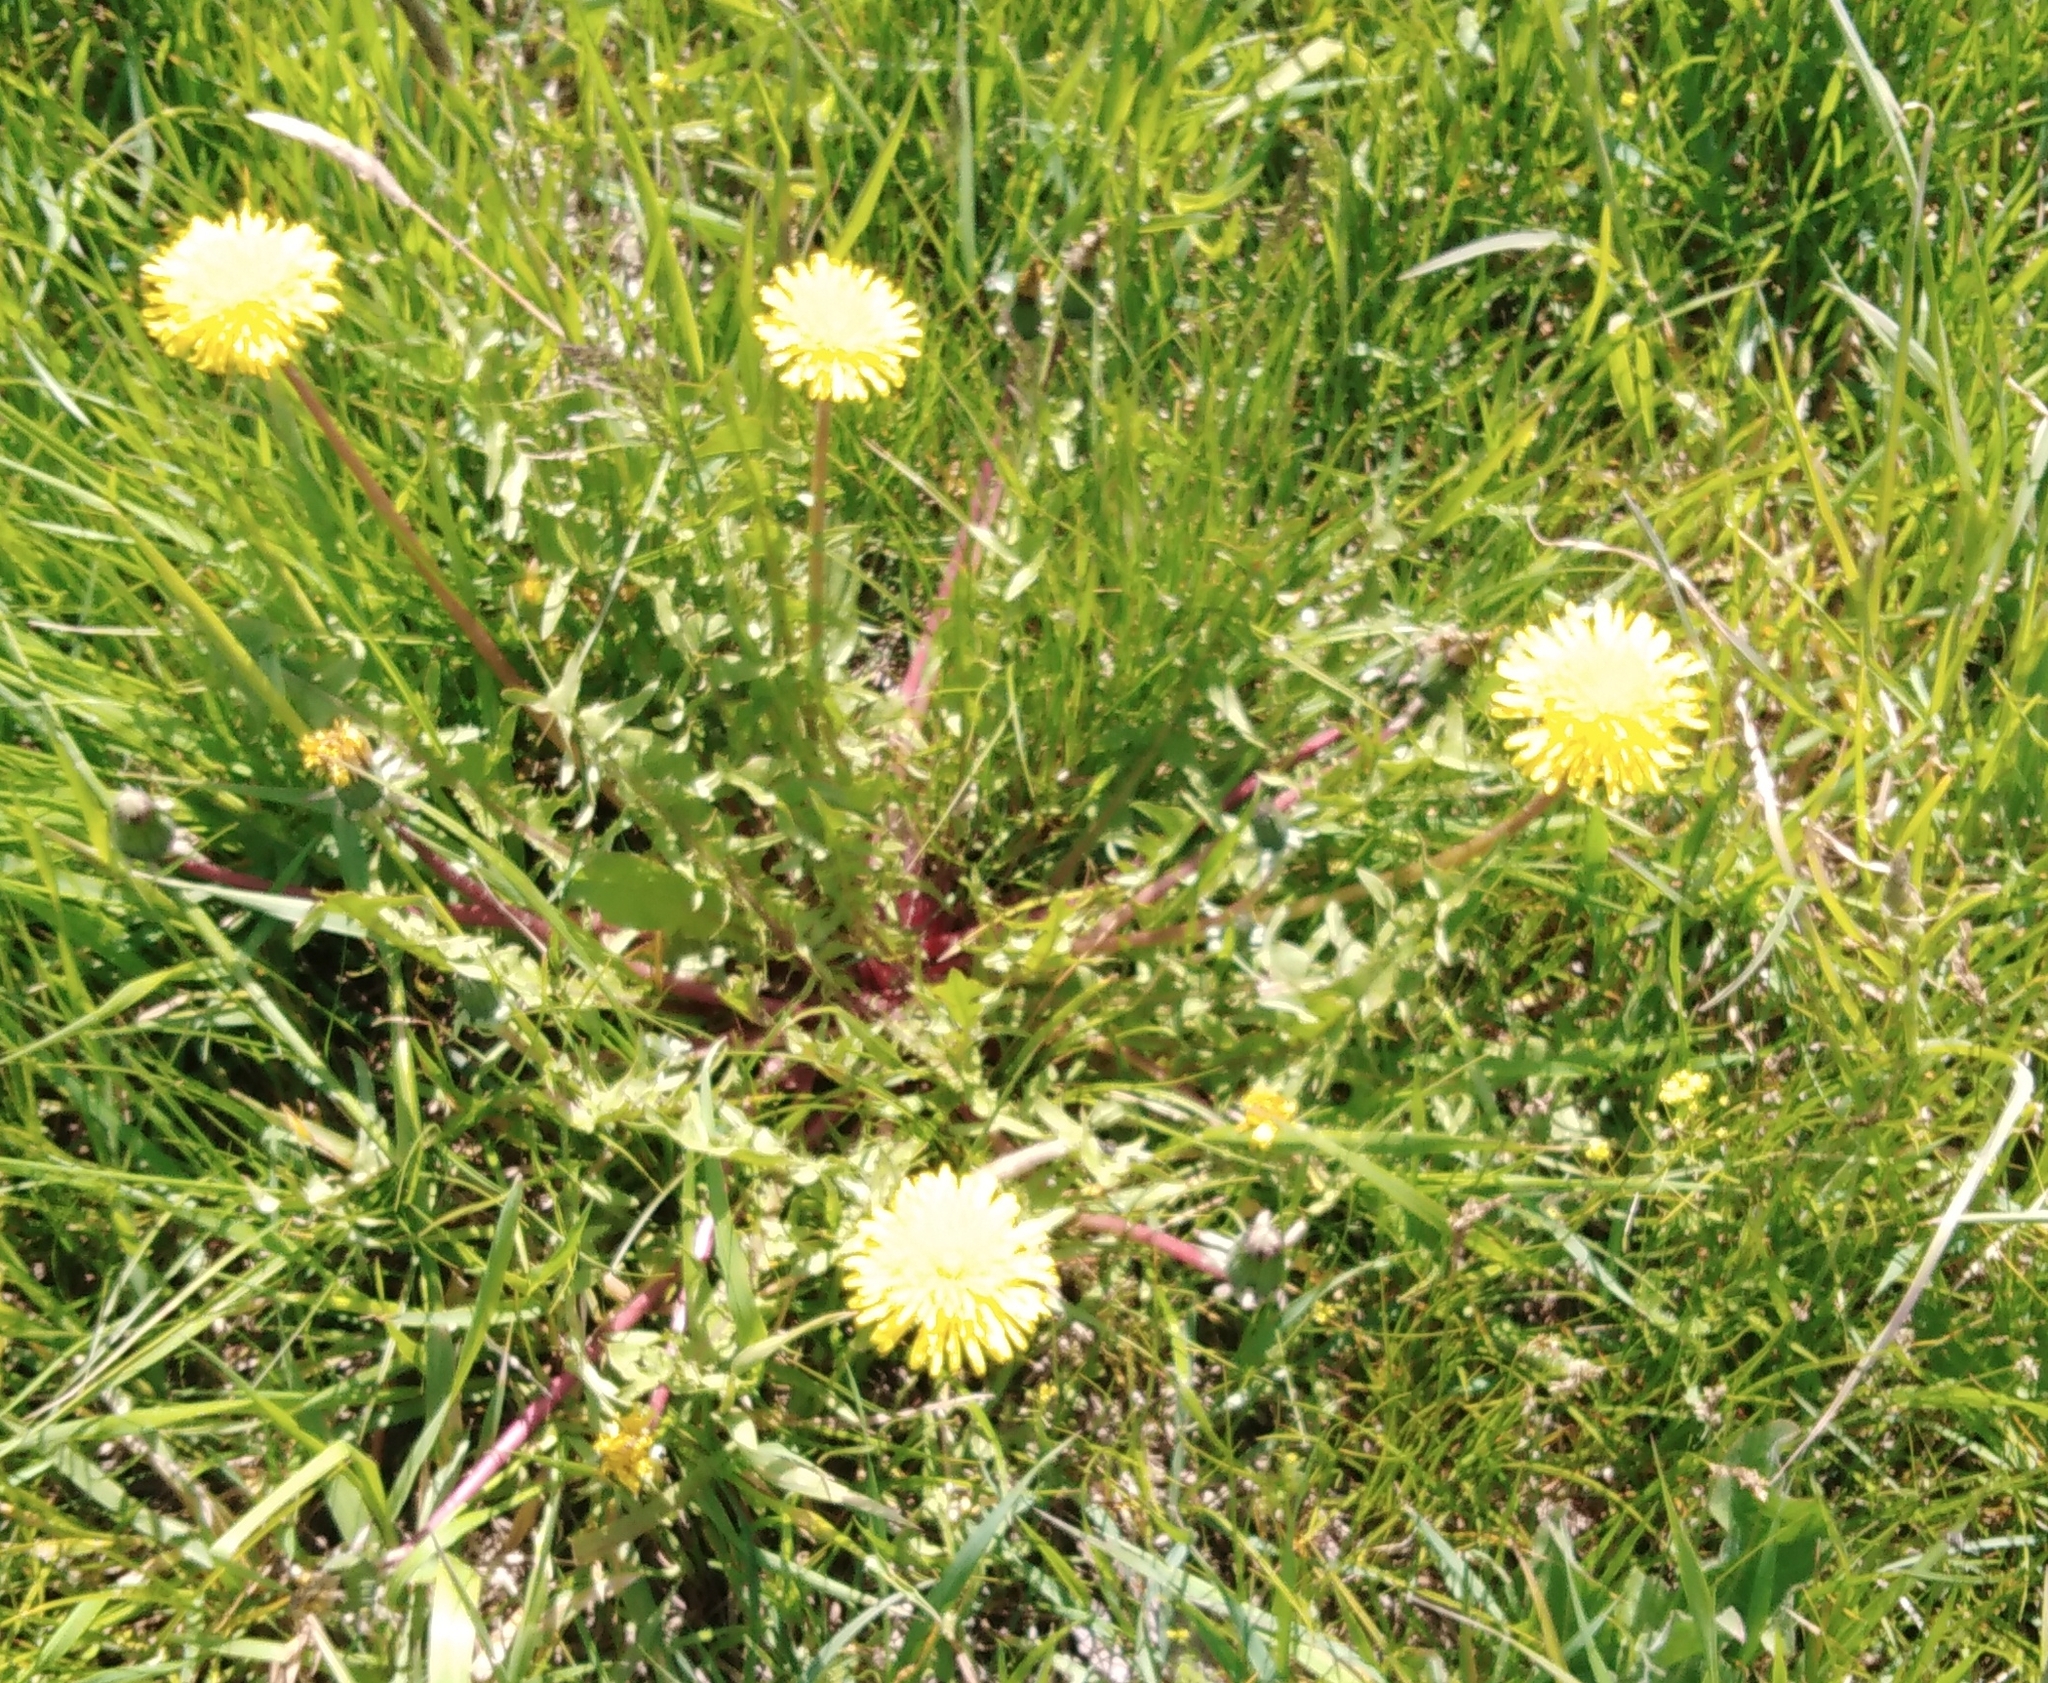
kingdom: Plantae
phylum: Tracheophyta
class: Magnoliopsida
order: Asterales
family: Asteraceae
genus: Taraxacum
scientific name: Taraxacum officinale
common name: Common dandelion
